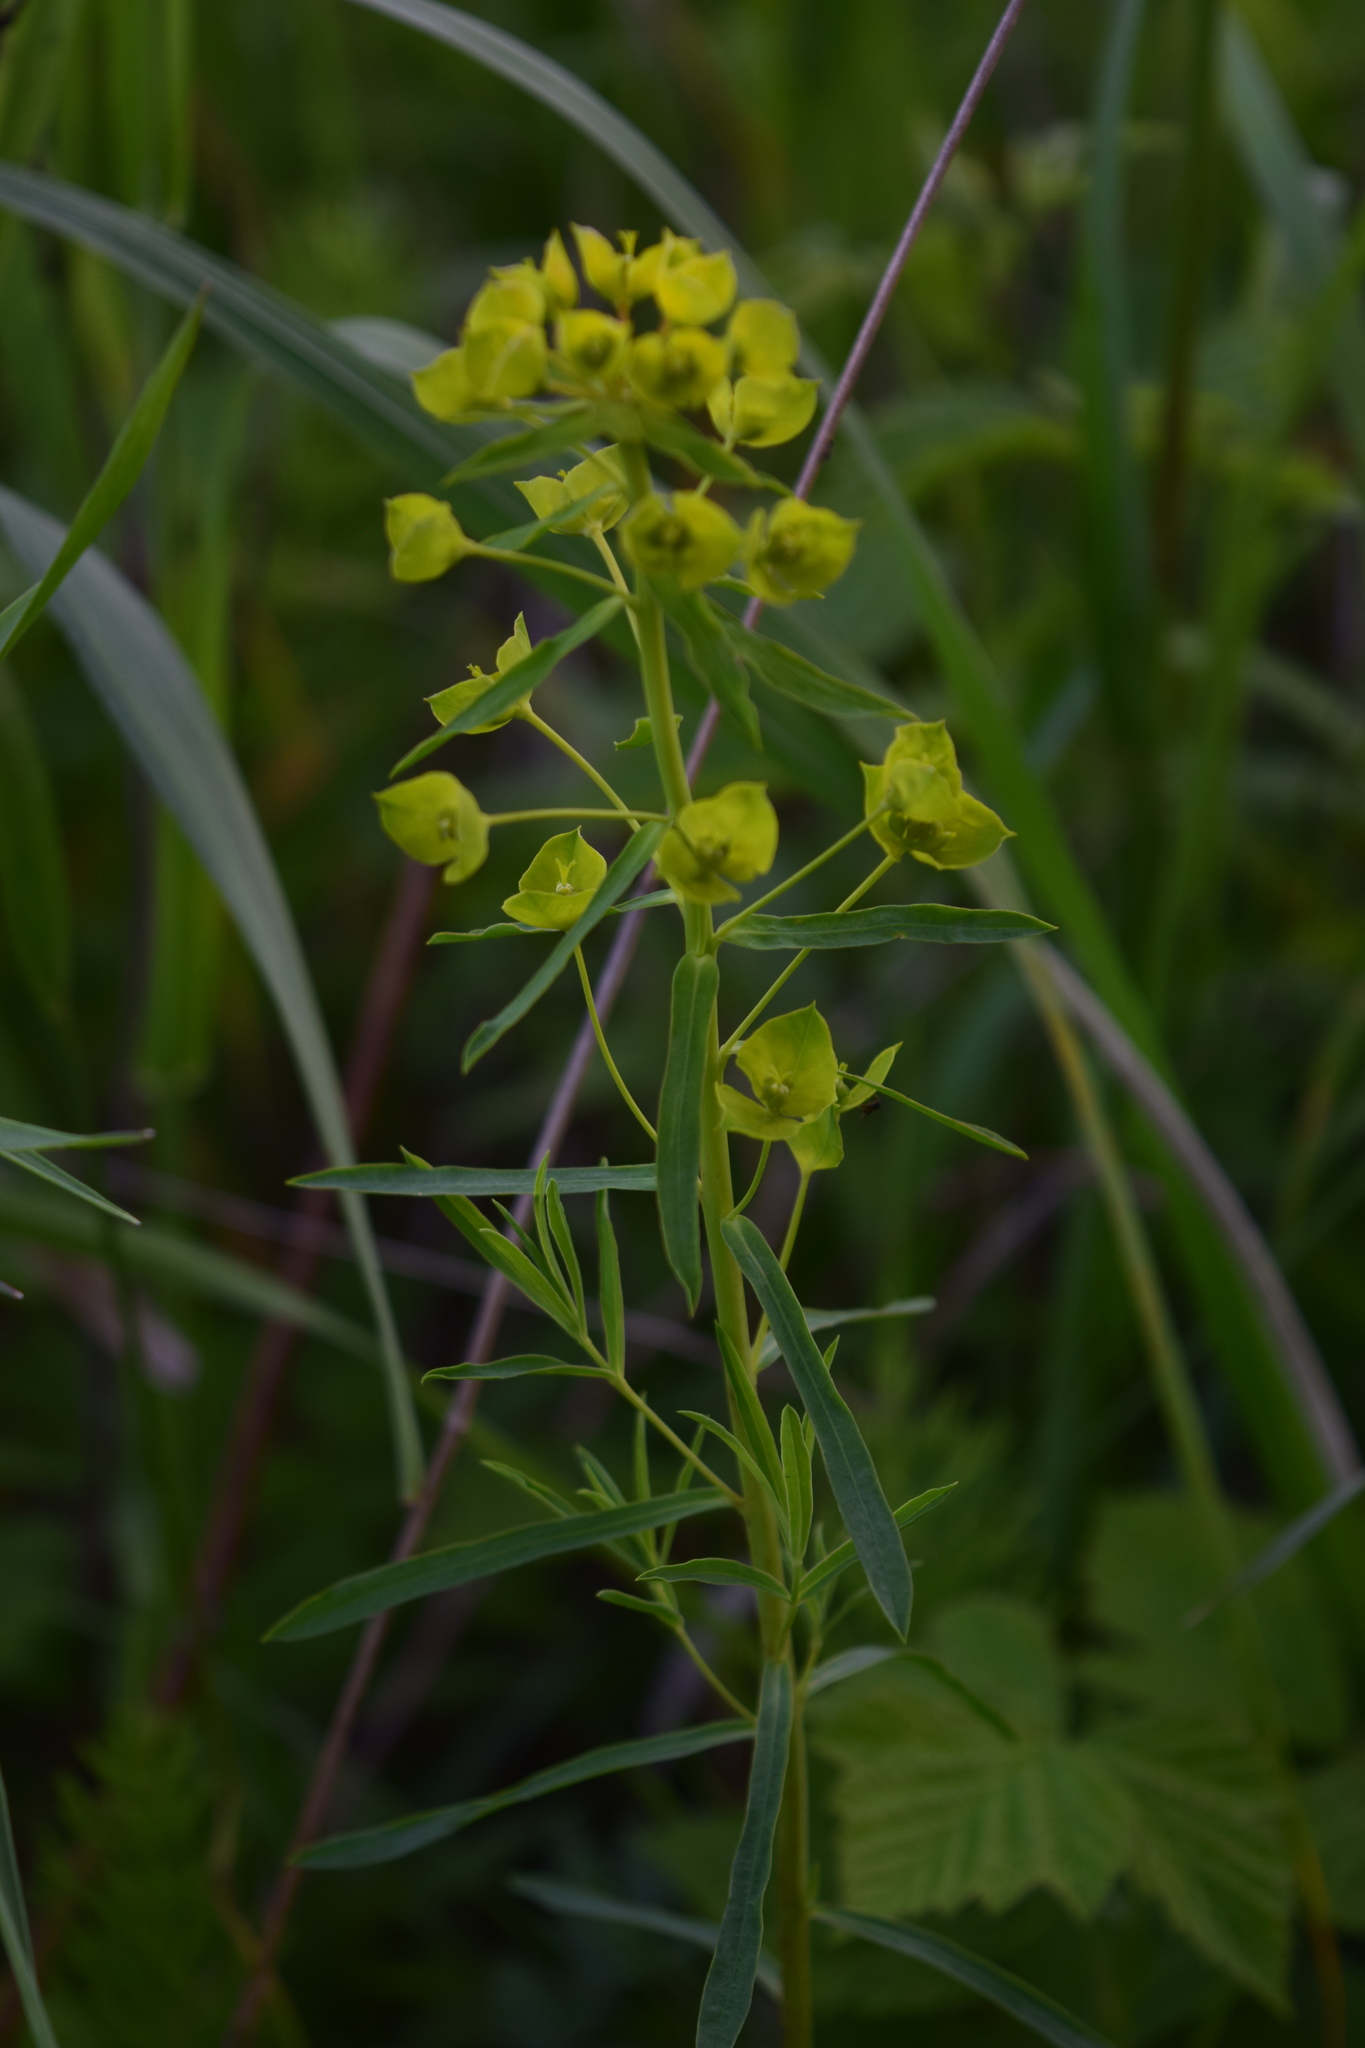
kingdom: Plantae
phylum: Tracheophyta
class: Magnoliopsida
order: Malpighiales
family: Euphorbiaceae
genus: Euphorbia
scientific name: Euphorbia virgata
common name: Leafy spurge
